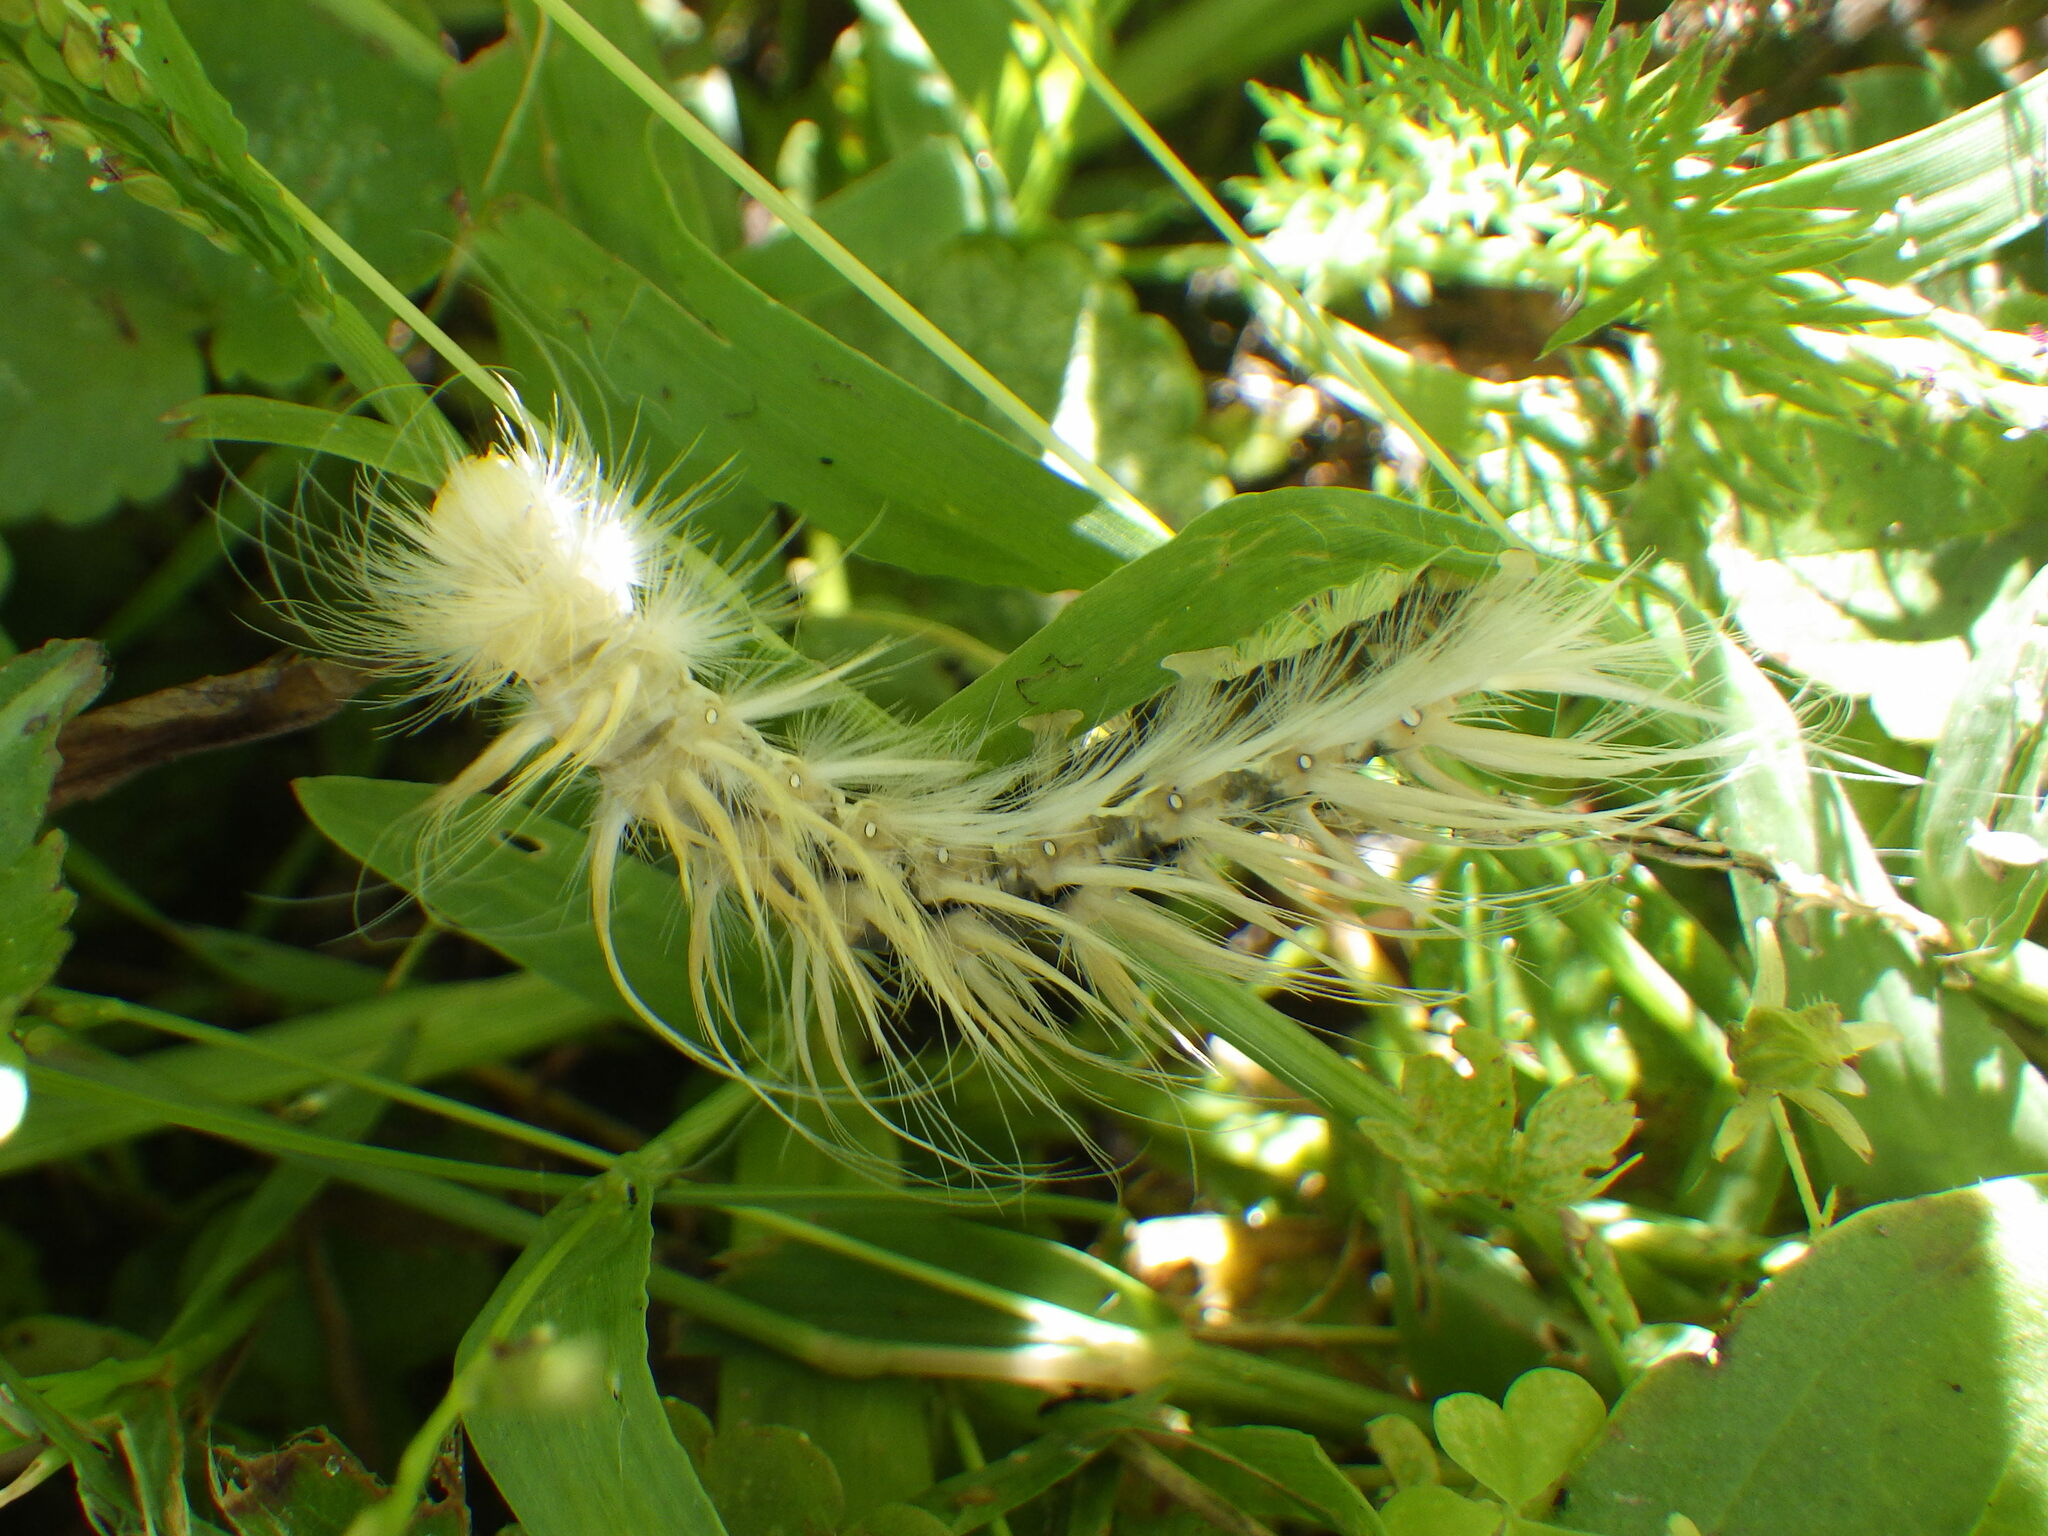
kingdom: Animalia
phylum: Arthropoda
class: Insecta
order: Lepidoptera
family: Erebidae
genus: Spilosoma
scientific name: Spilosoma virginica
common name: Virginia tiger moth
